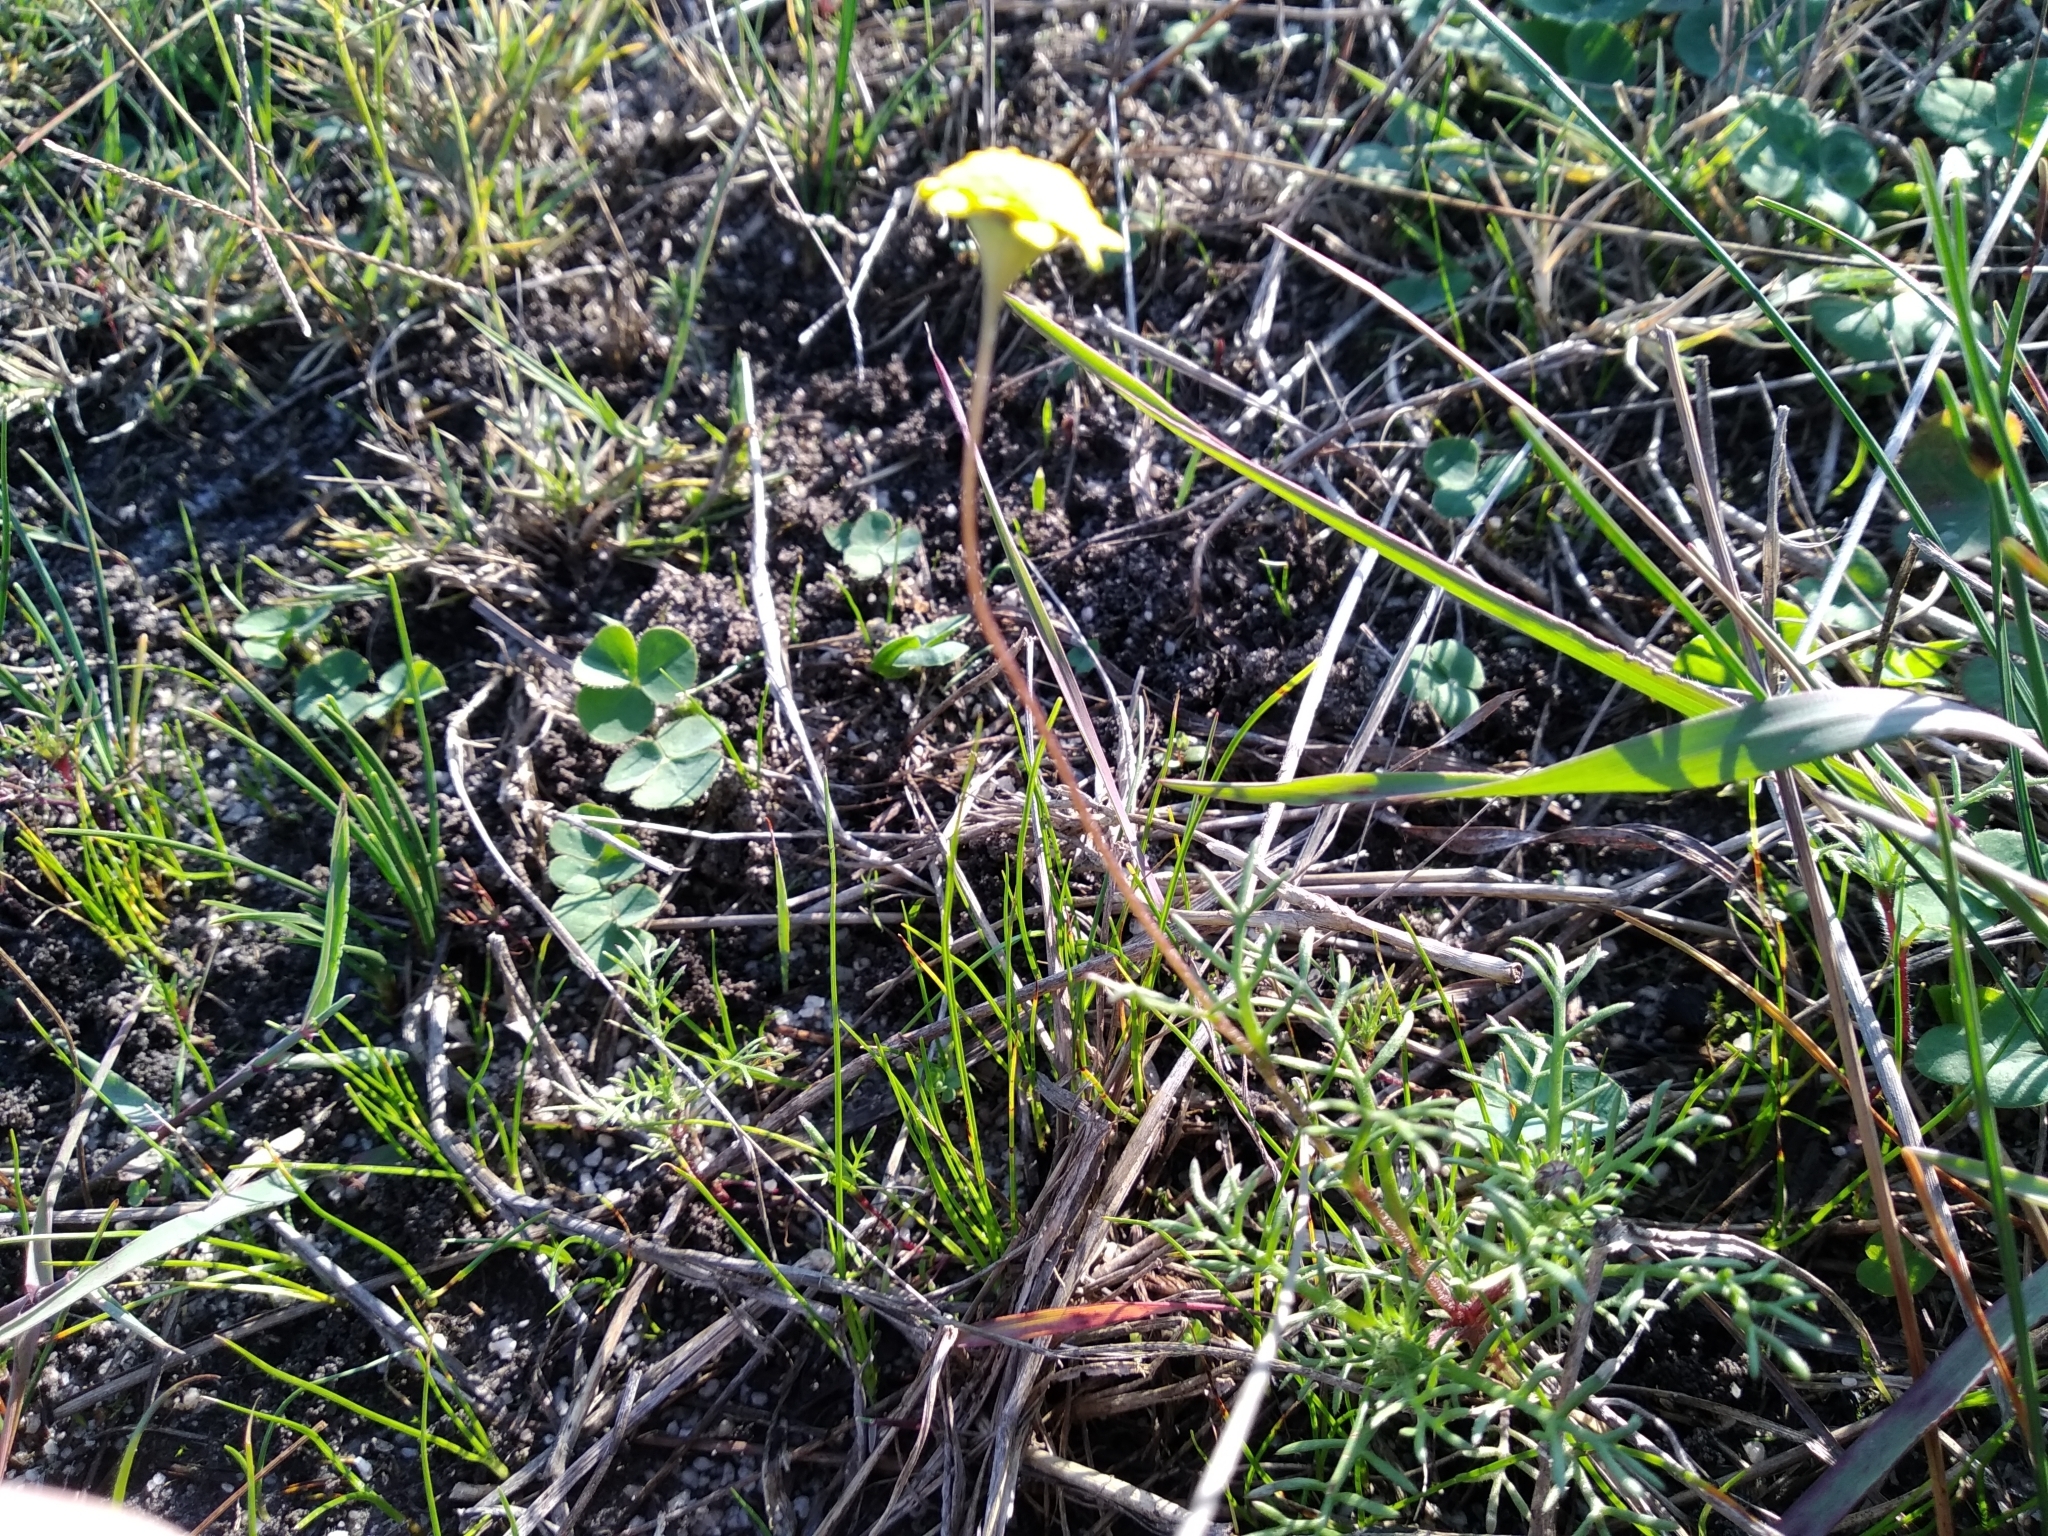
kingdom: Plantae
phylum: Tracheophyta
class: Magnoliopsida
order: Asterales
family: Asteraceae
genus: Cotula
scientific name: Cotula pruinosa
